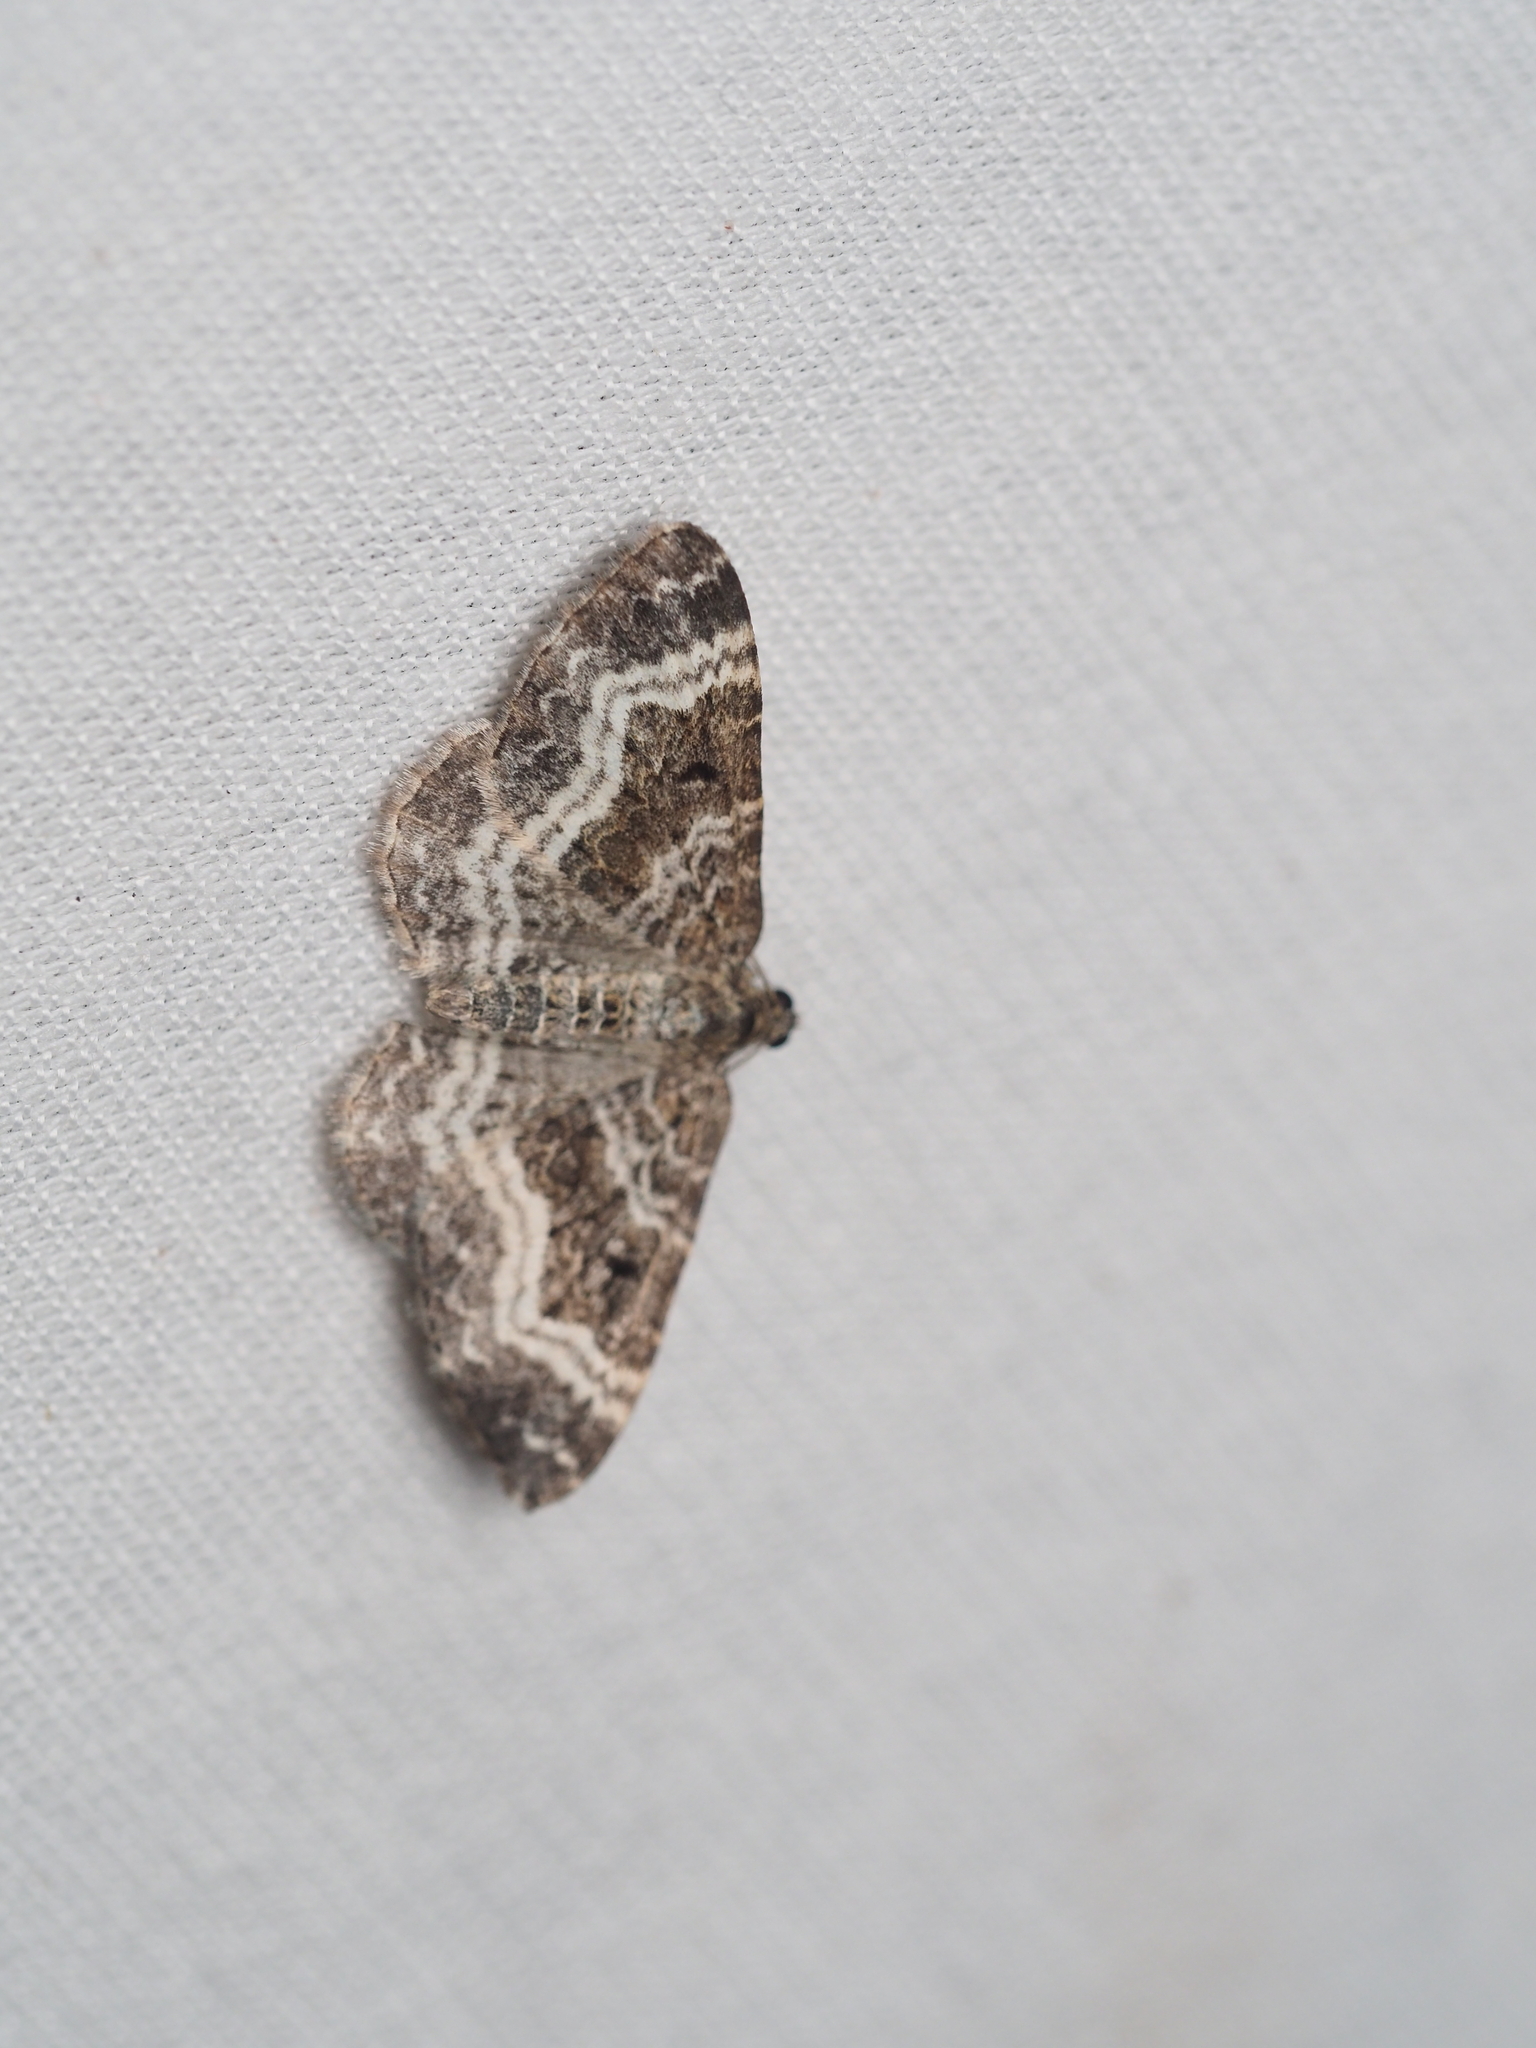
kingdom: Animalia
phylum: Arthropoda
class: Insecta
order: Lepidoptera
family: Geometridae
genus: Epirrhoe
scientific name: Epirrhoe alternata
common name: Common carpet
